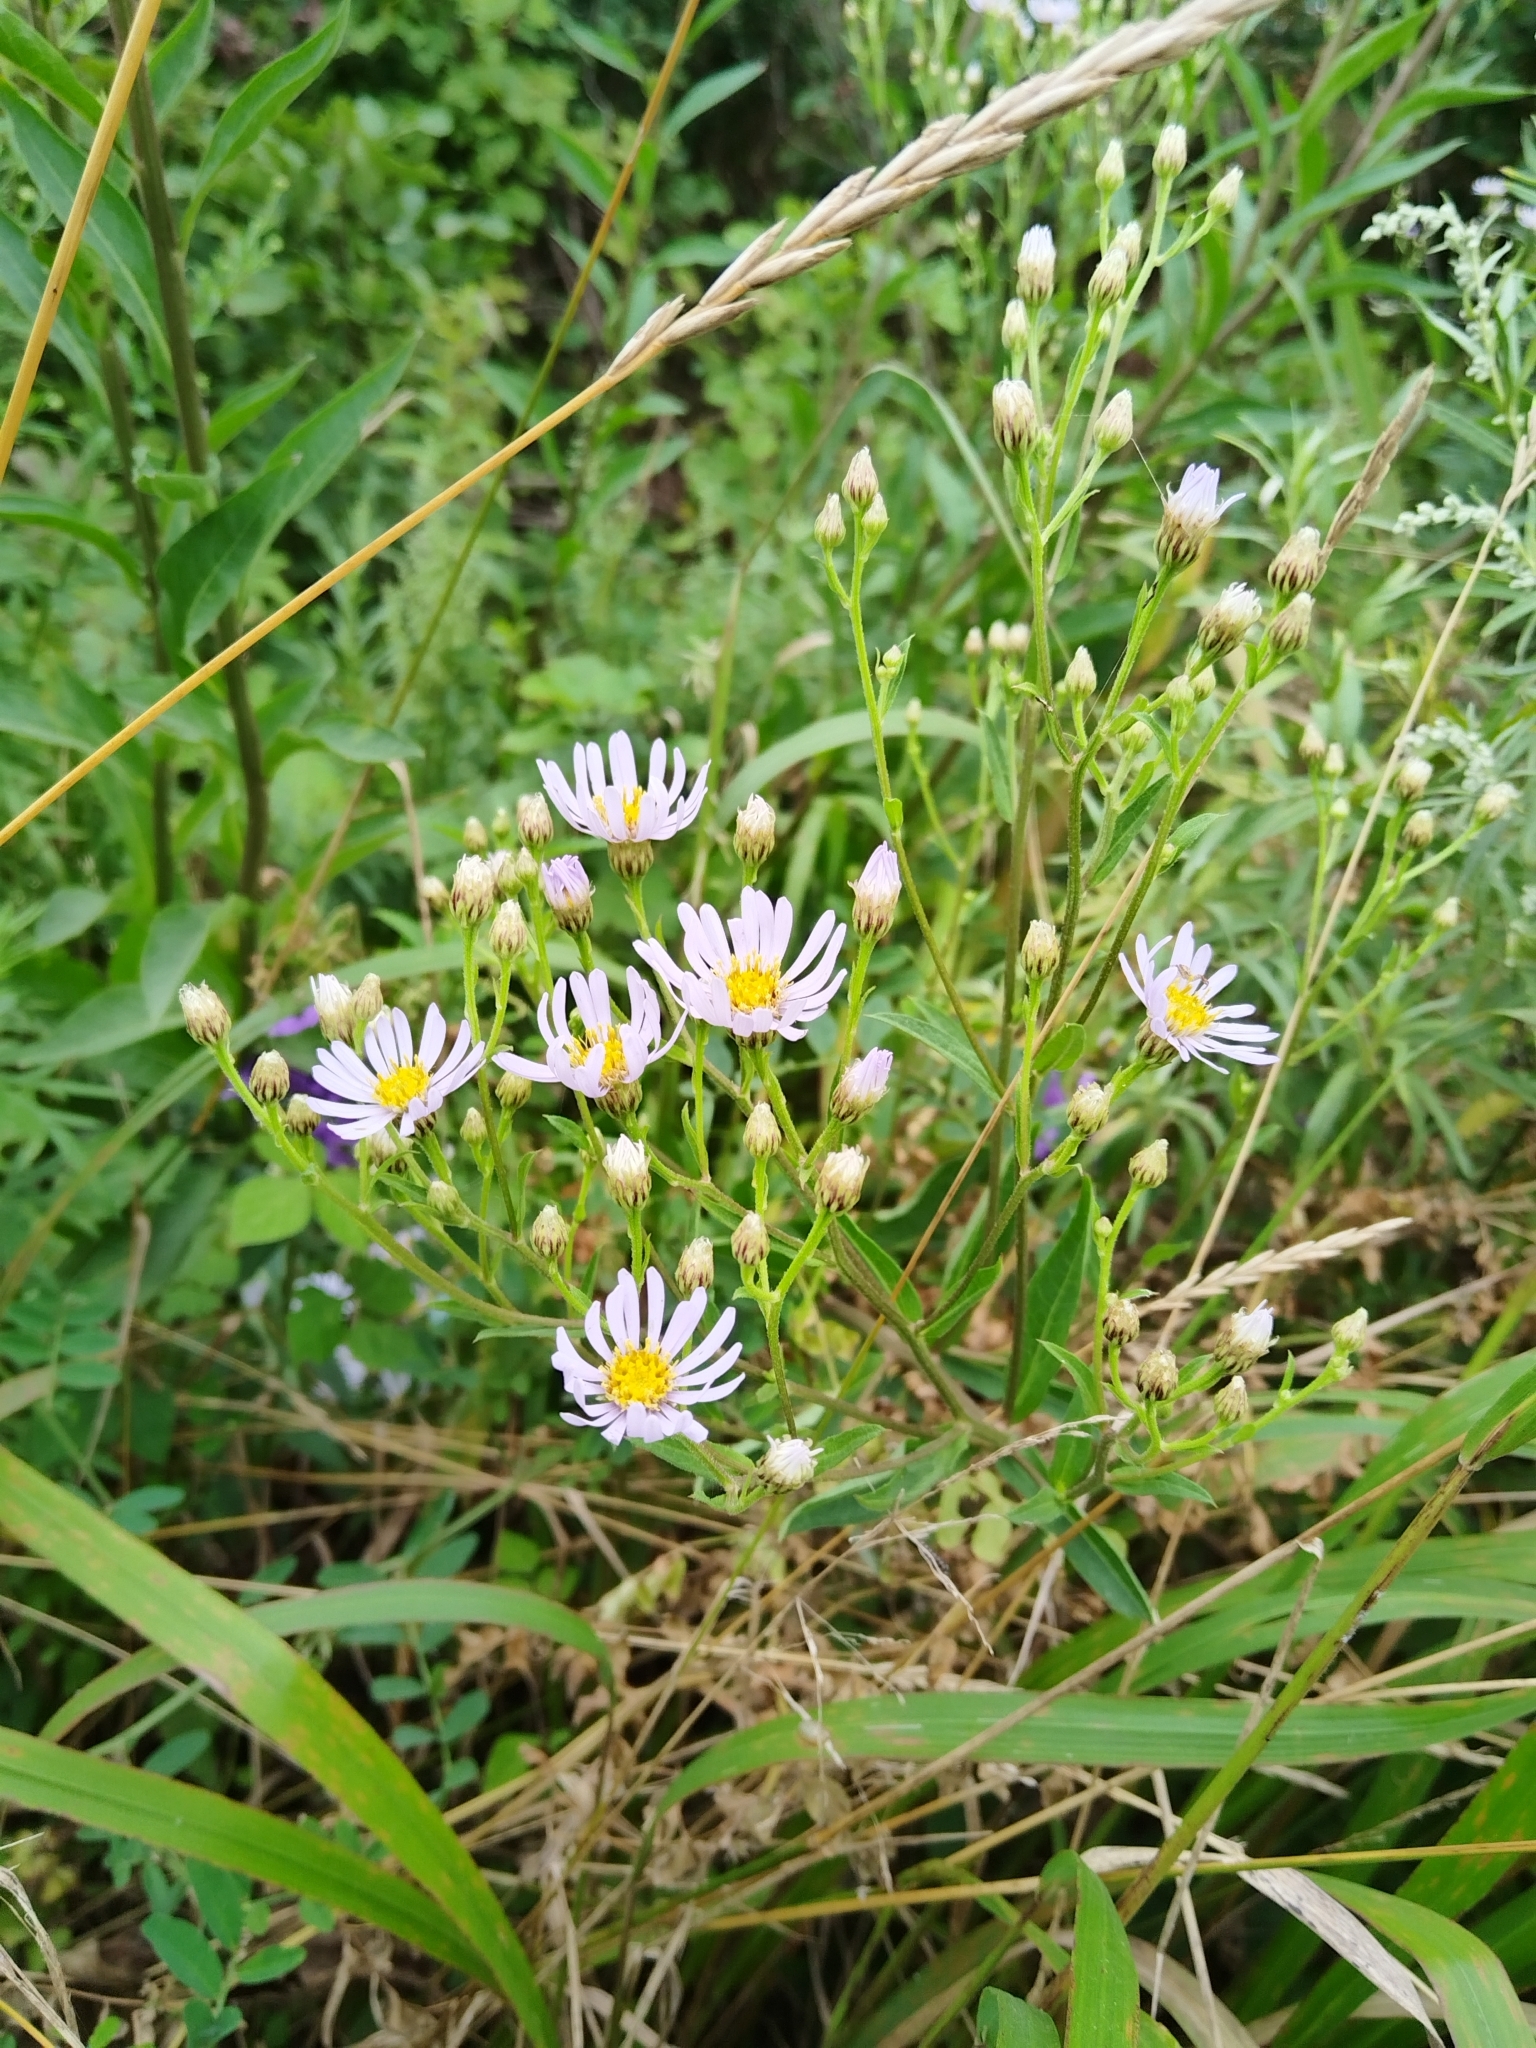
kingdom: Plantae
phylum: Tracheophyta
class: Magnoliopsida
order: Asterales
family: Asteraceae
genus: Aster
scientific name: Aster tataricus
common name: Tatarian aster
